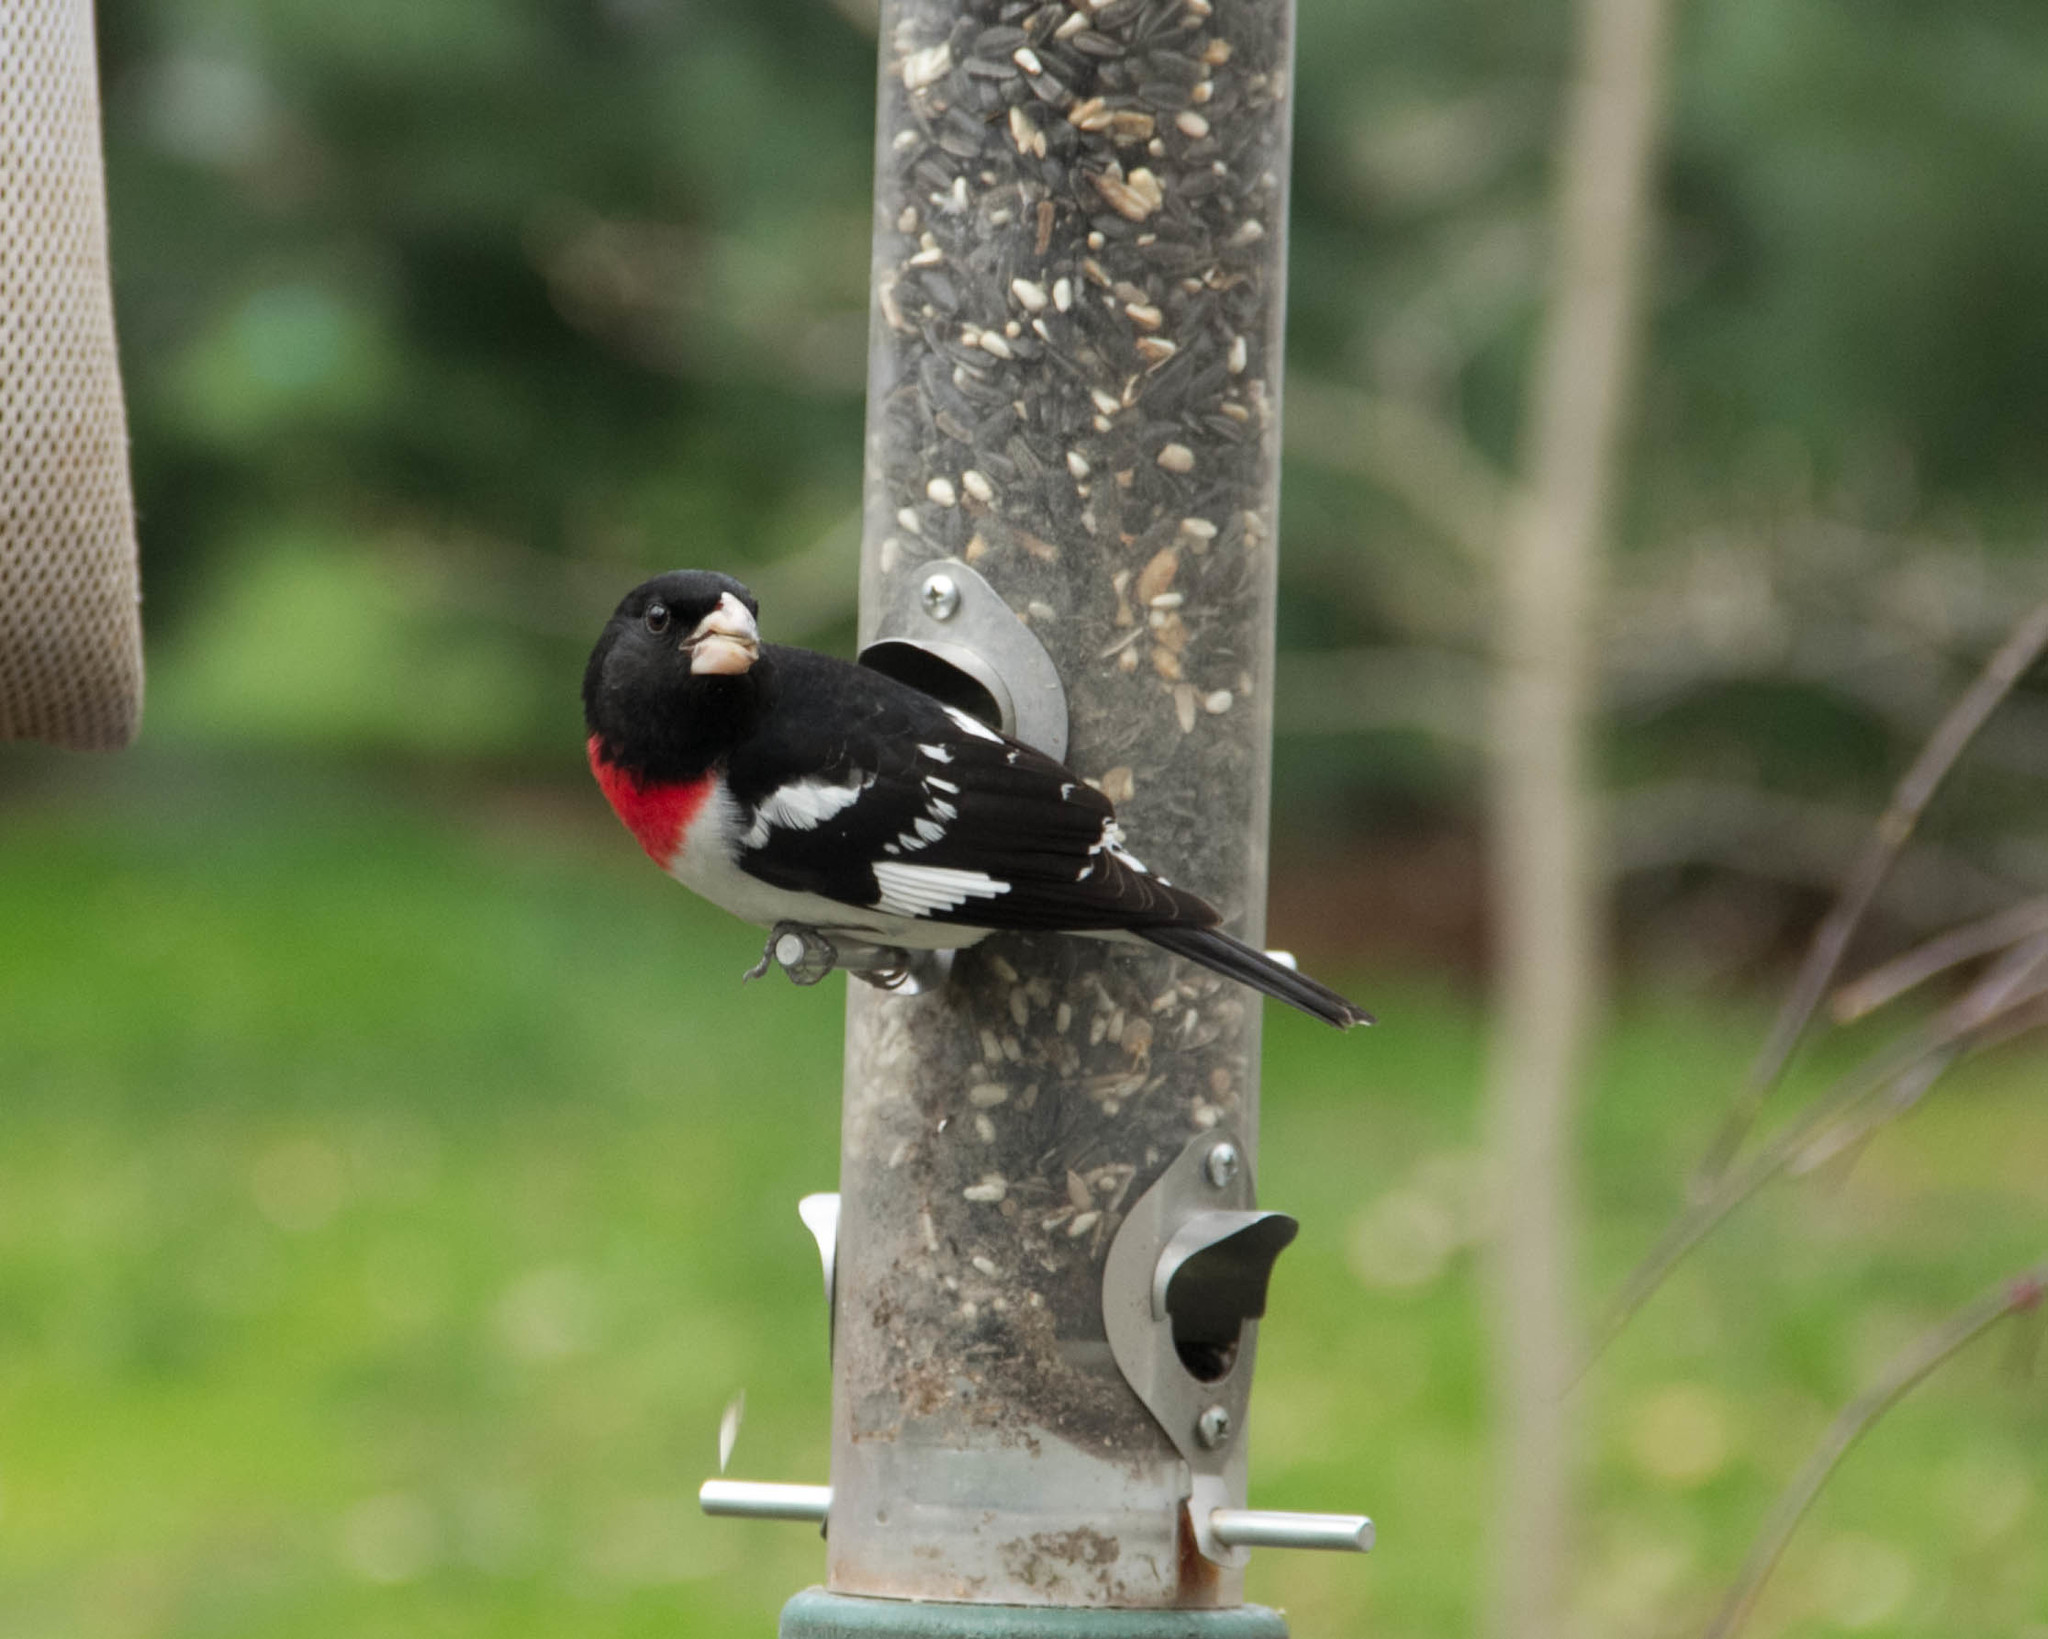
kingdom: Animalia
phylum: Chordata
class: Aves
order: Passeriformes
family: Cardinalidae
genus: Pheucticus
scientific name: Pheucticus ludovicianus
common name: Rose-breasted grosbeak
